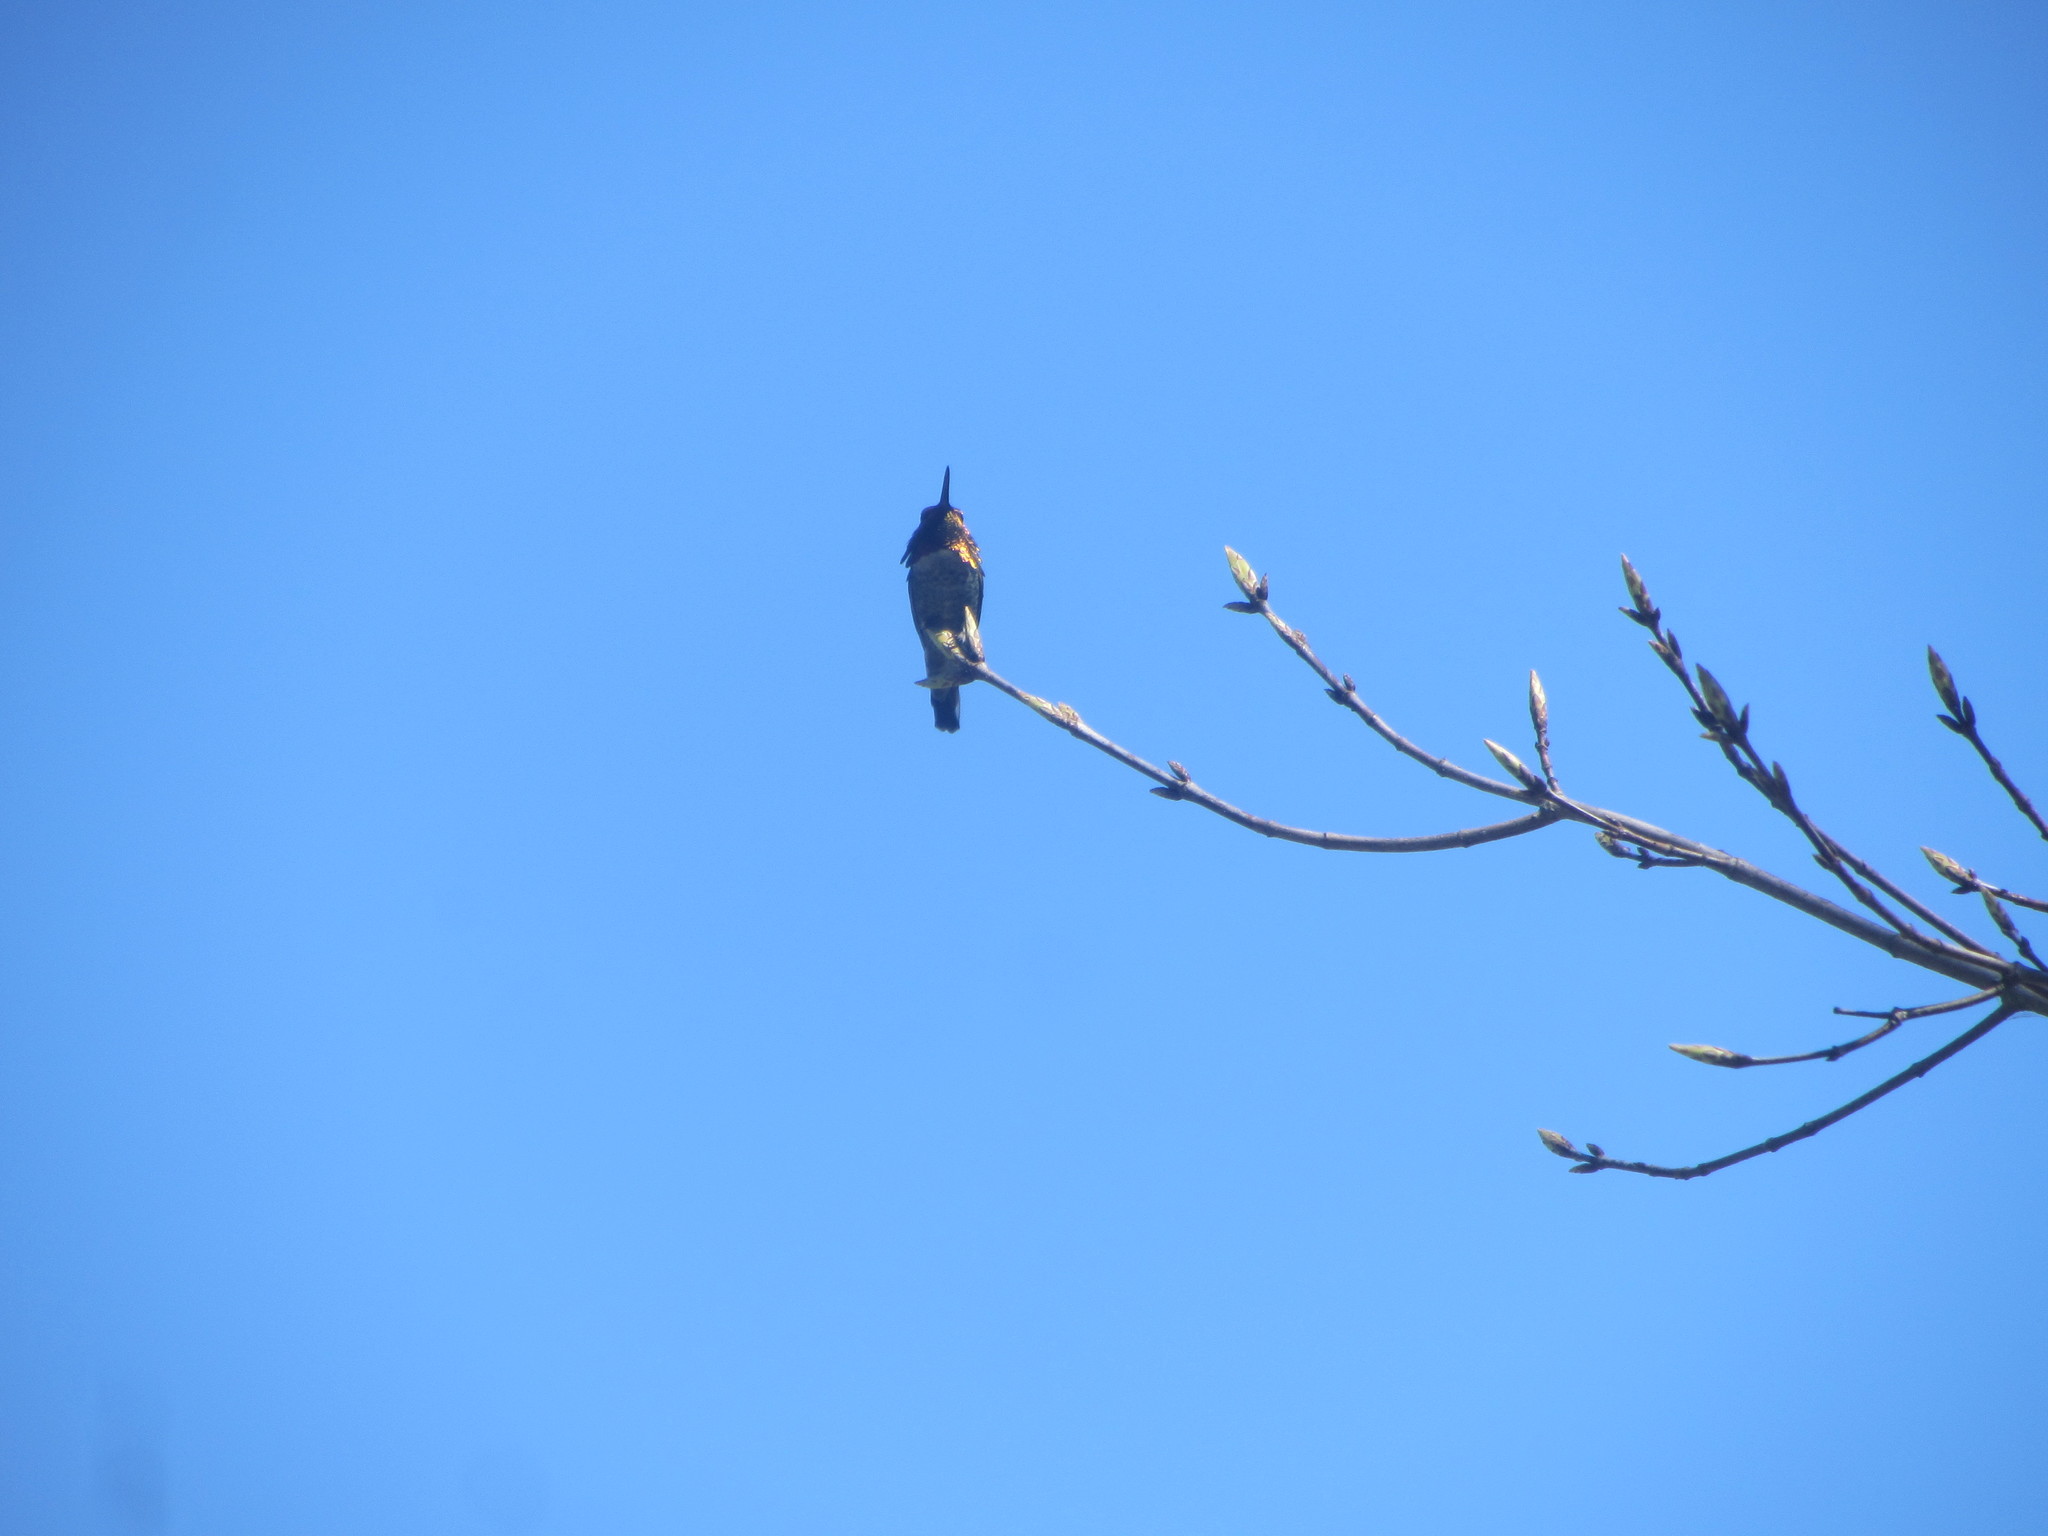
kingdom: Animalia
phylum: Chordata
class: Aves
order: Apodiformes
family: Trochilidae
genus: Calypte
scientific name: Calypte anna
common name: Anna's hummingbird
